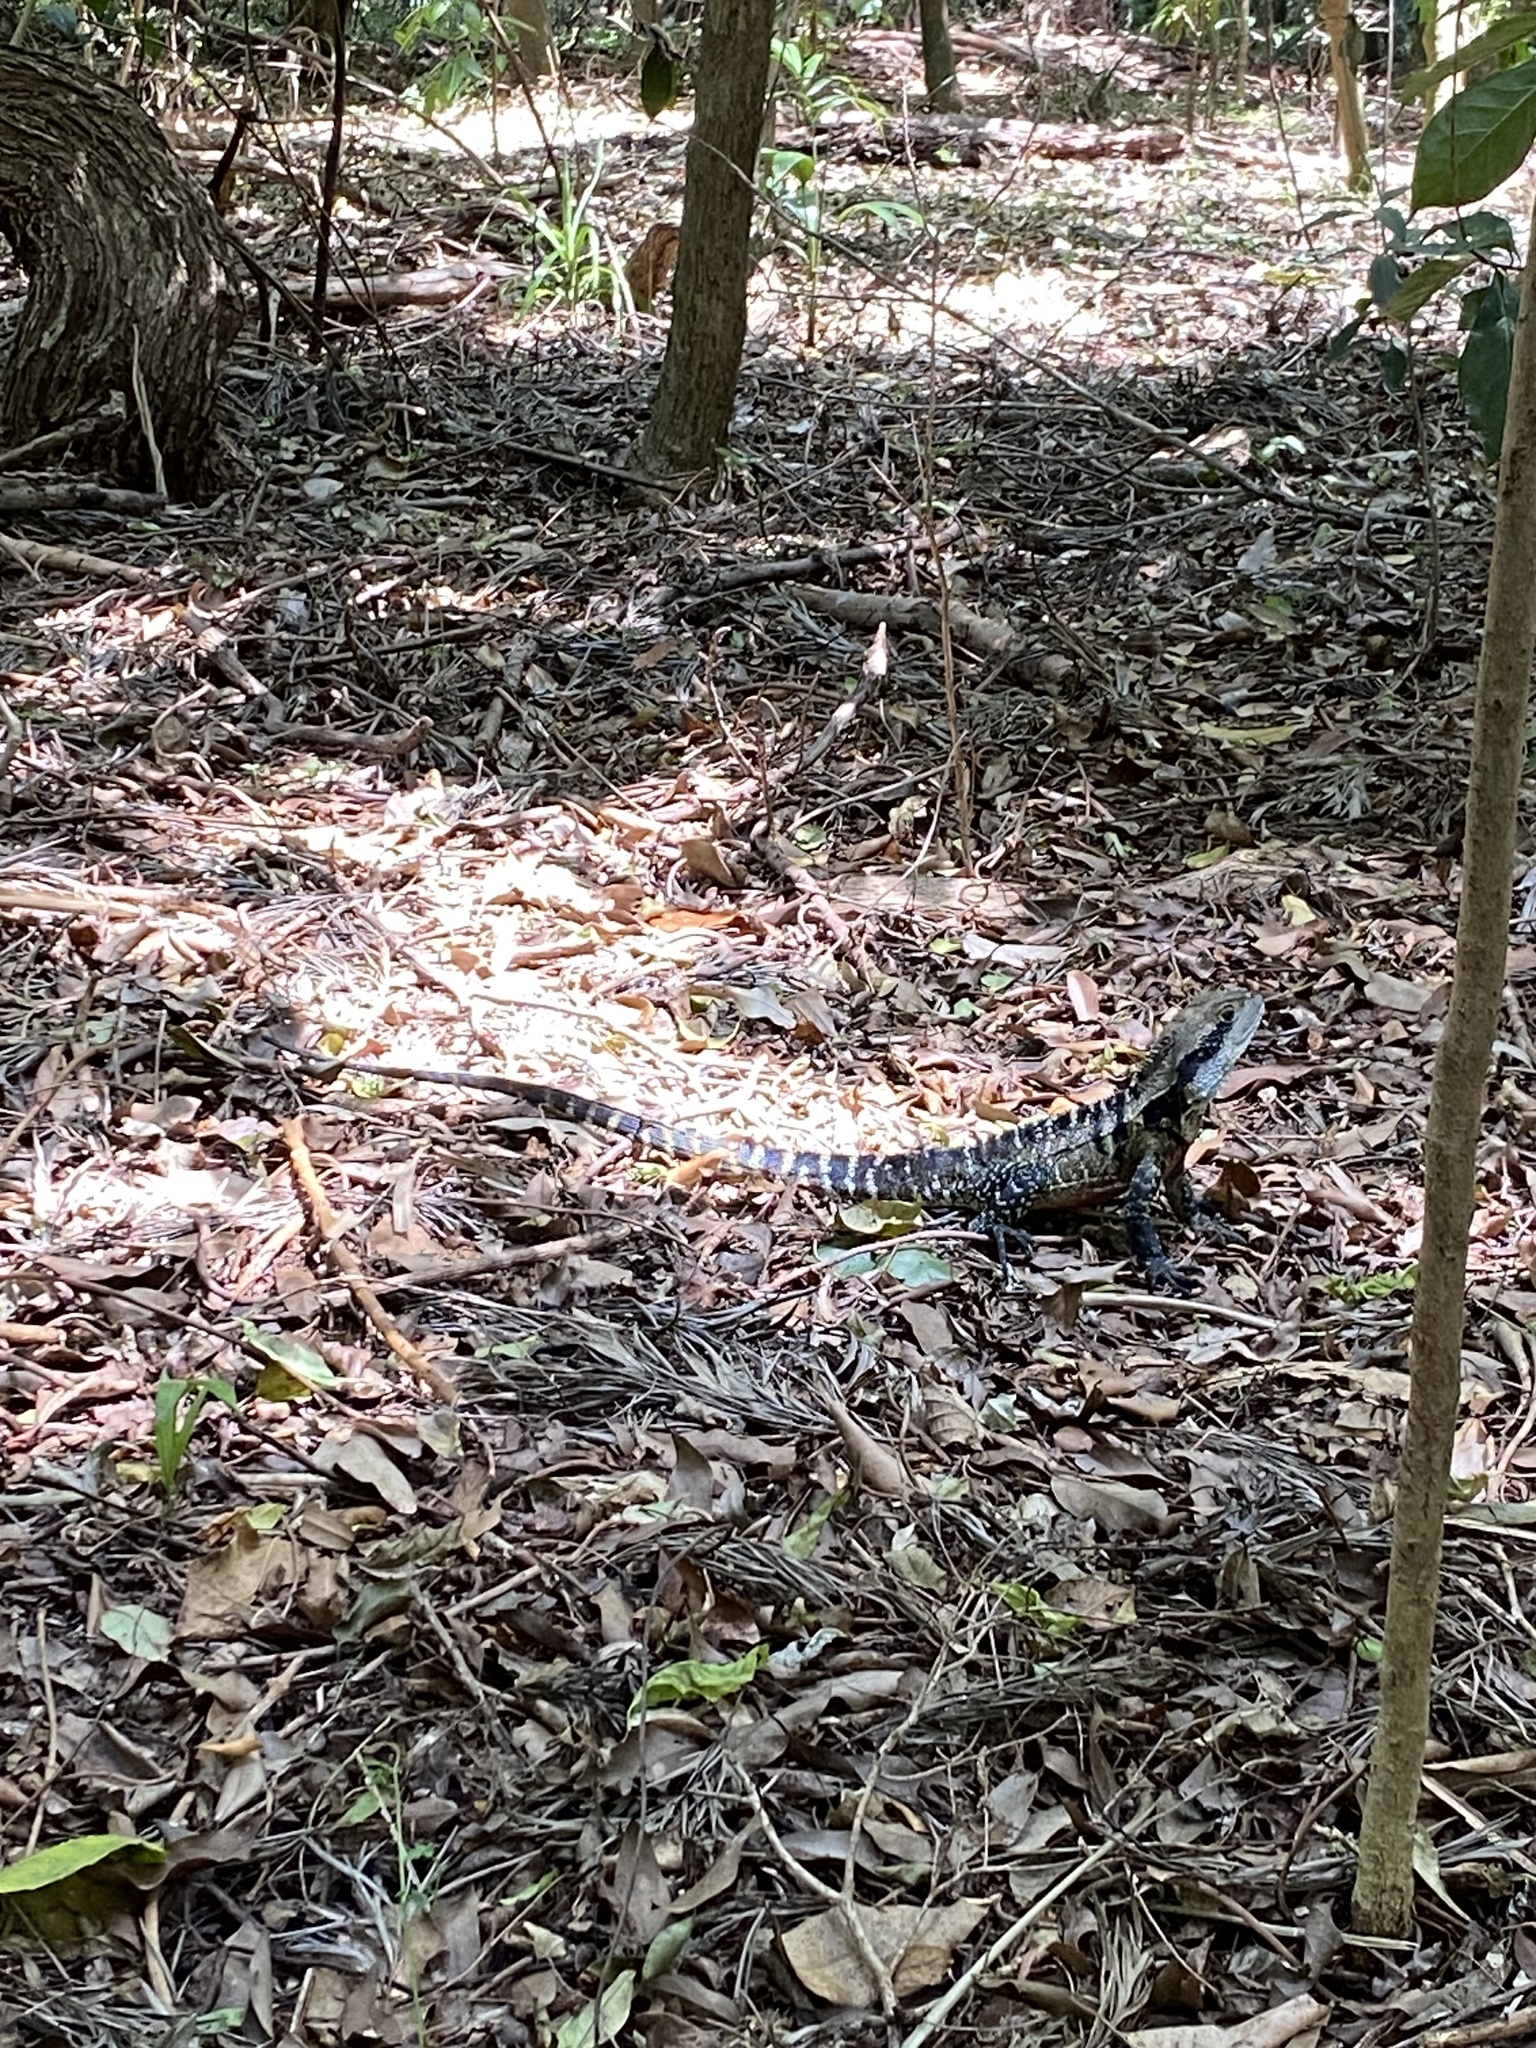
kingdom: Animalia
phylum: Chordata
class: Squamata
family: Agamidae
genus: Intellagama
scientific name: Intellagama lesueurii
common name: Eastern water dragon
